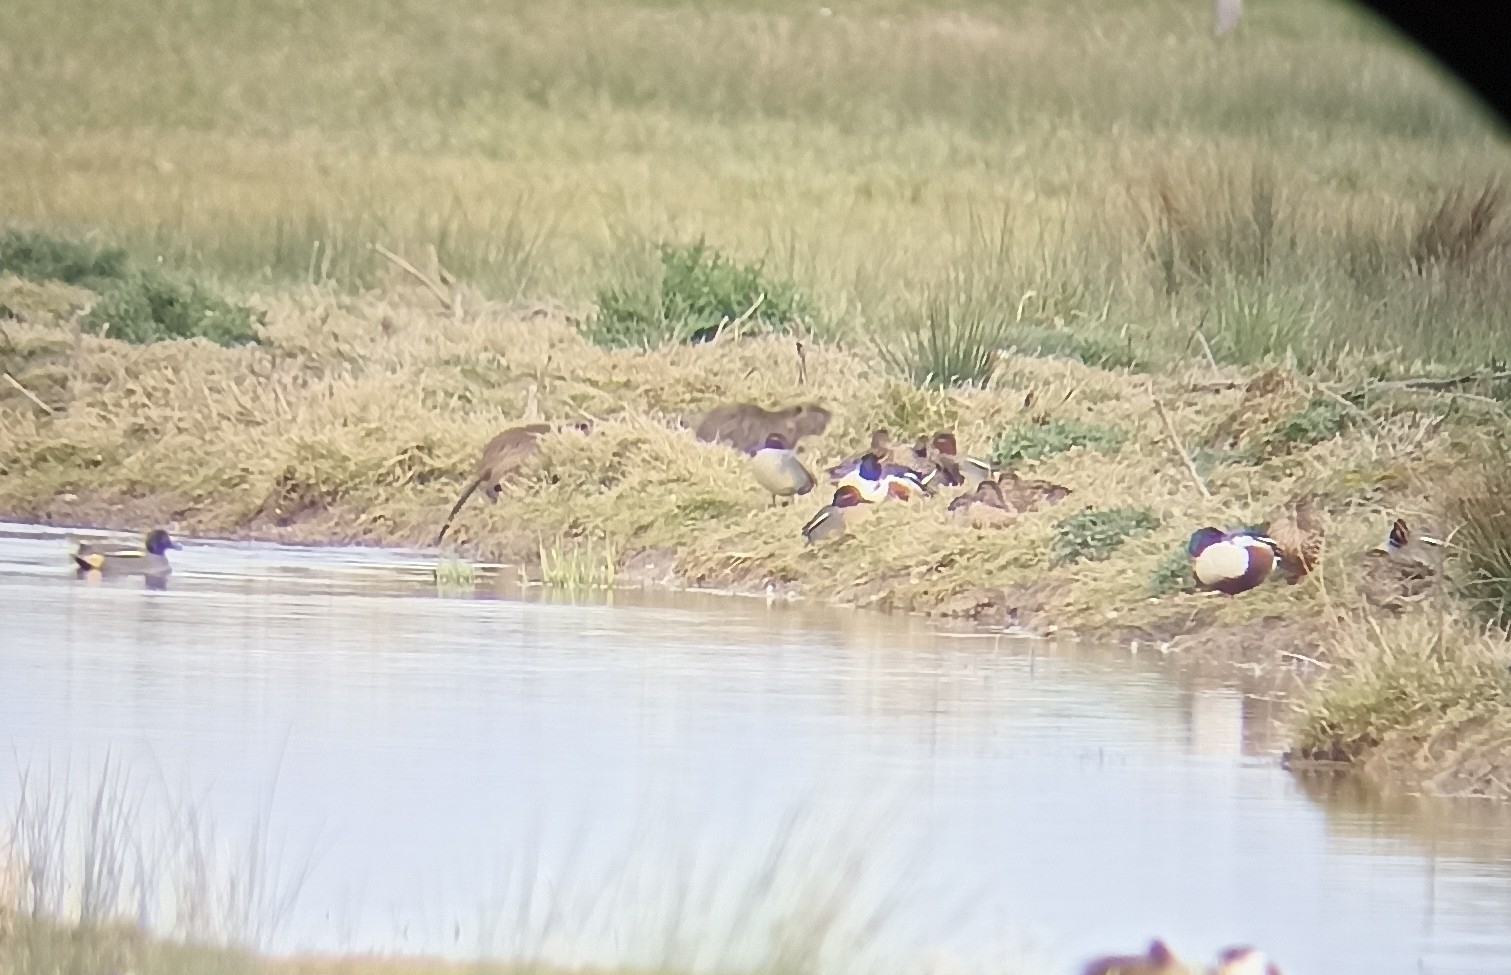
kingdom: Animalia
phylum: Chordata
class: Mammalia
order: Rodentia
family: Myocastoridae
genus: Myocastor
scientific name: Myocastor coypus
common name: Coypu
